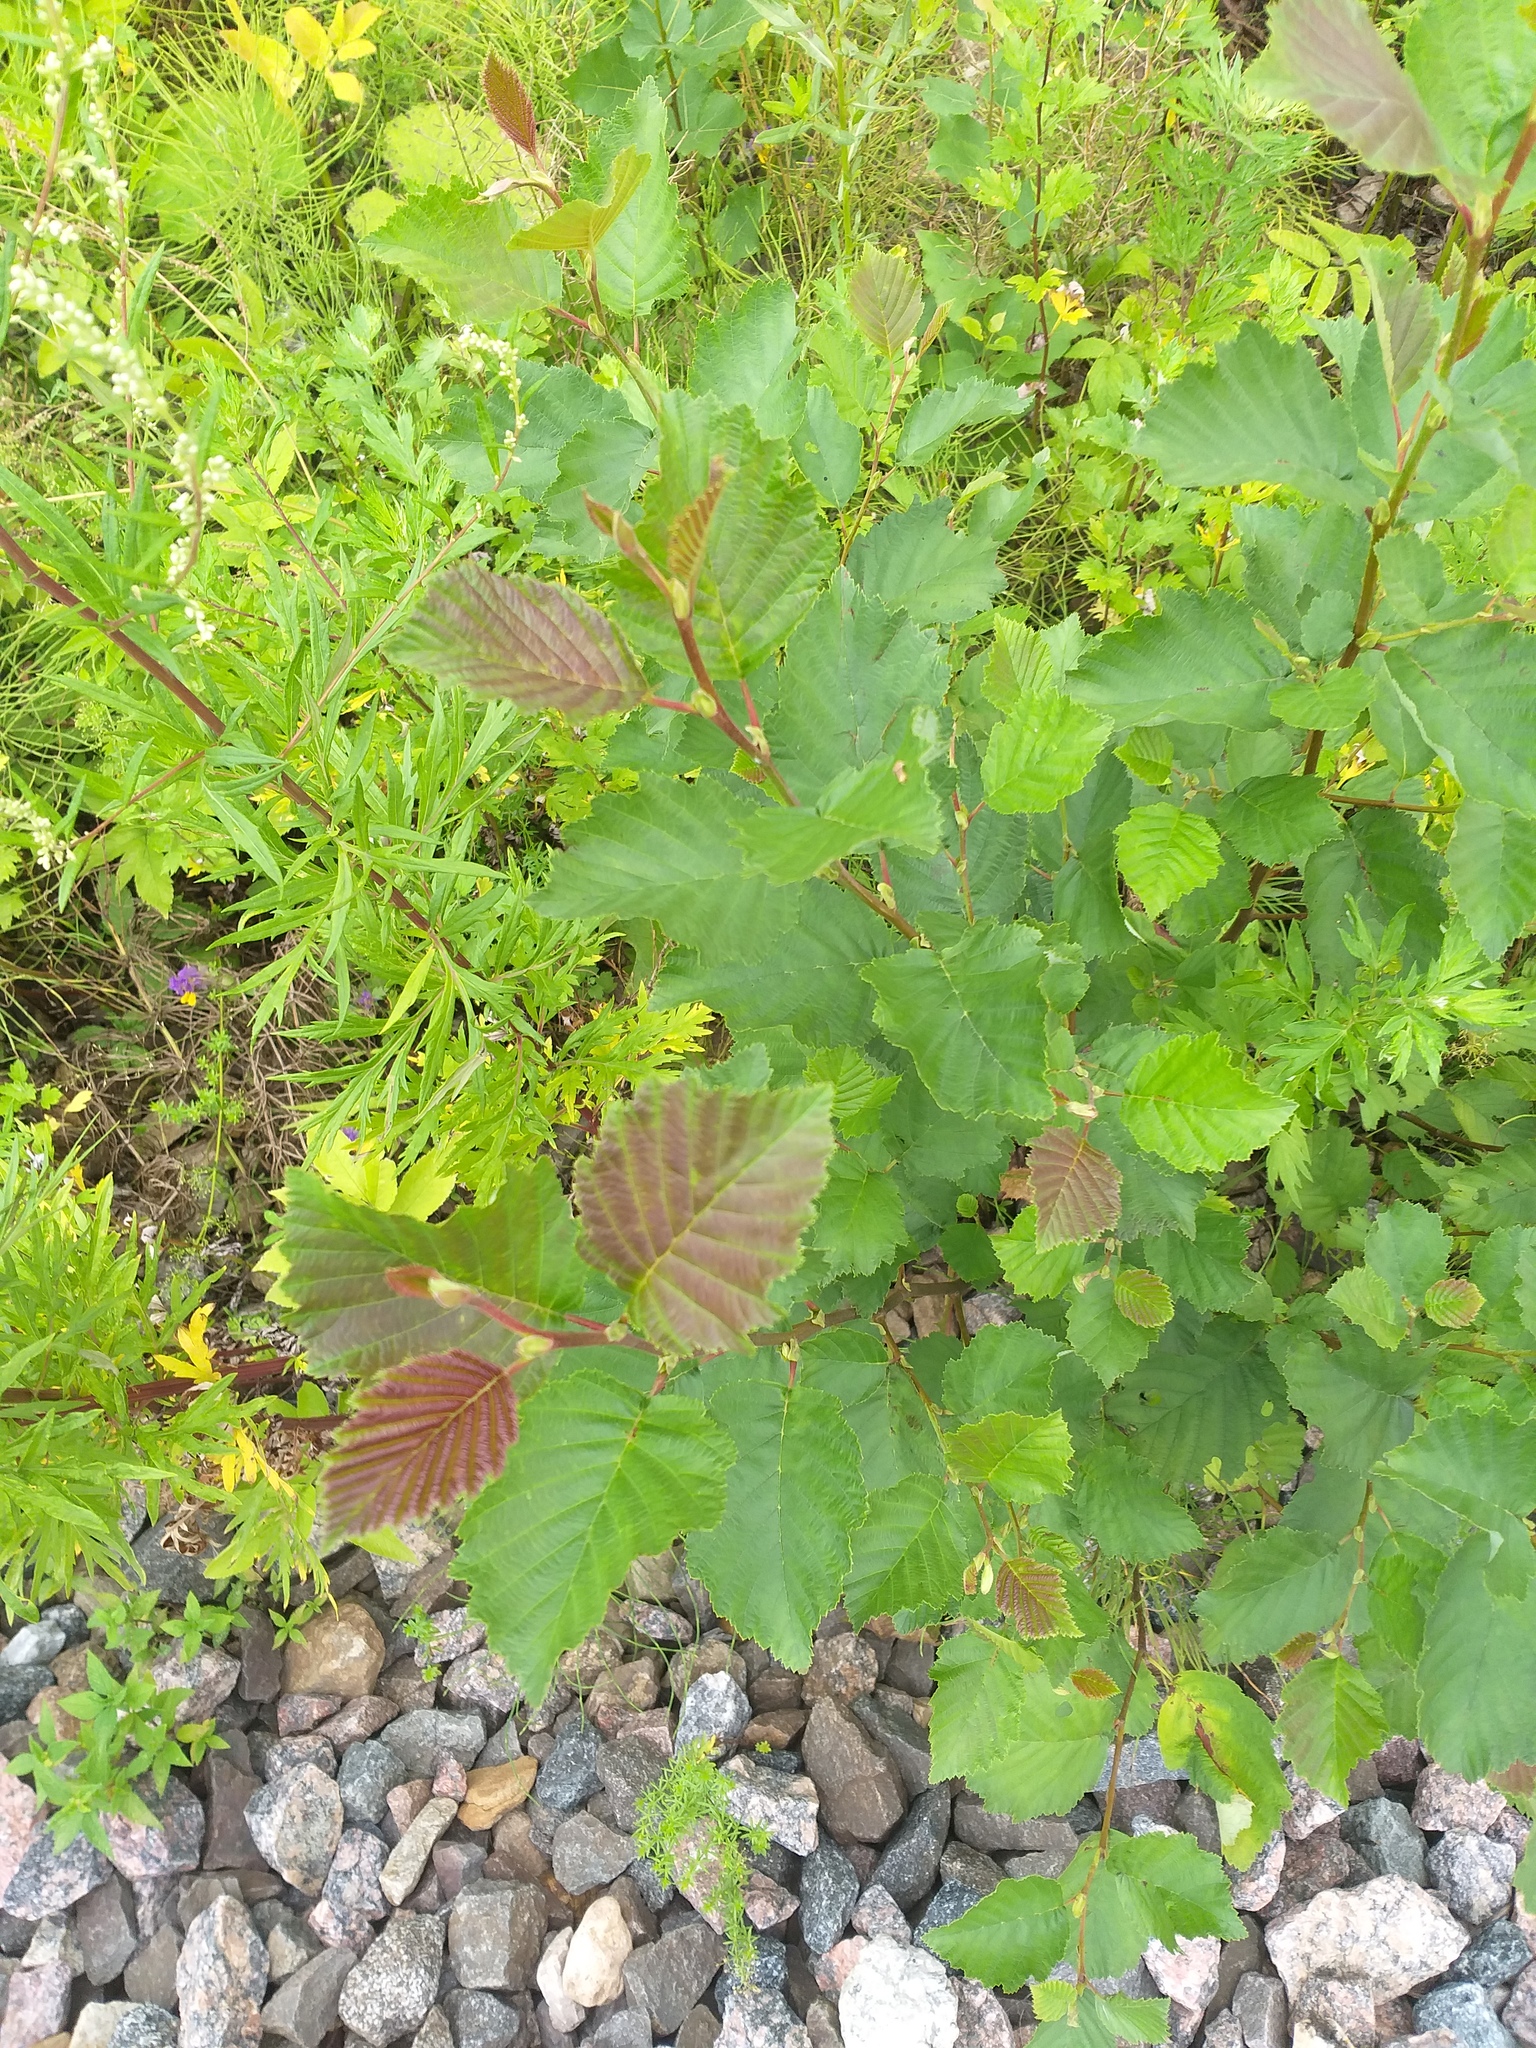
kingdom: Plantae
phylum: Tracheophyta
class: Magnoliopsida
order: Fagales
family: Betulaceae
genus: Alnus
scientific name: Alnus incana
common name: Grey alder
